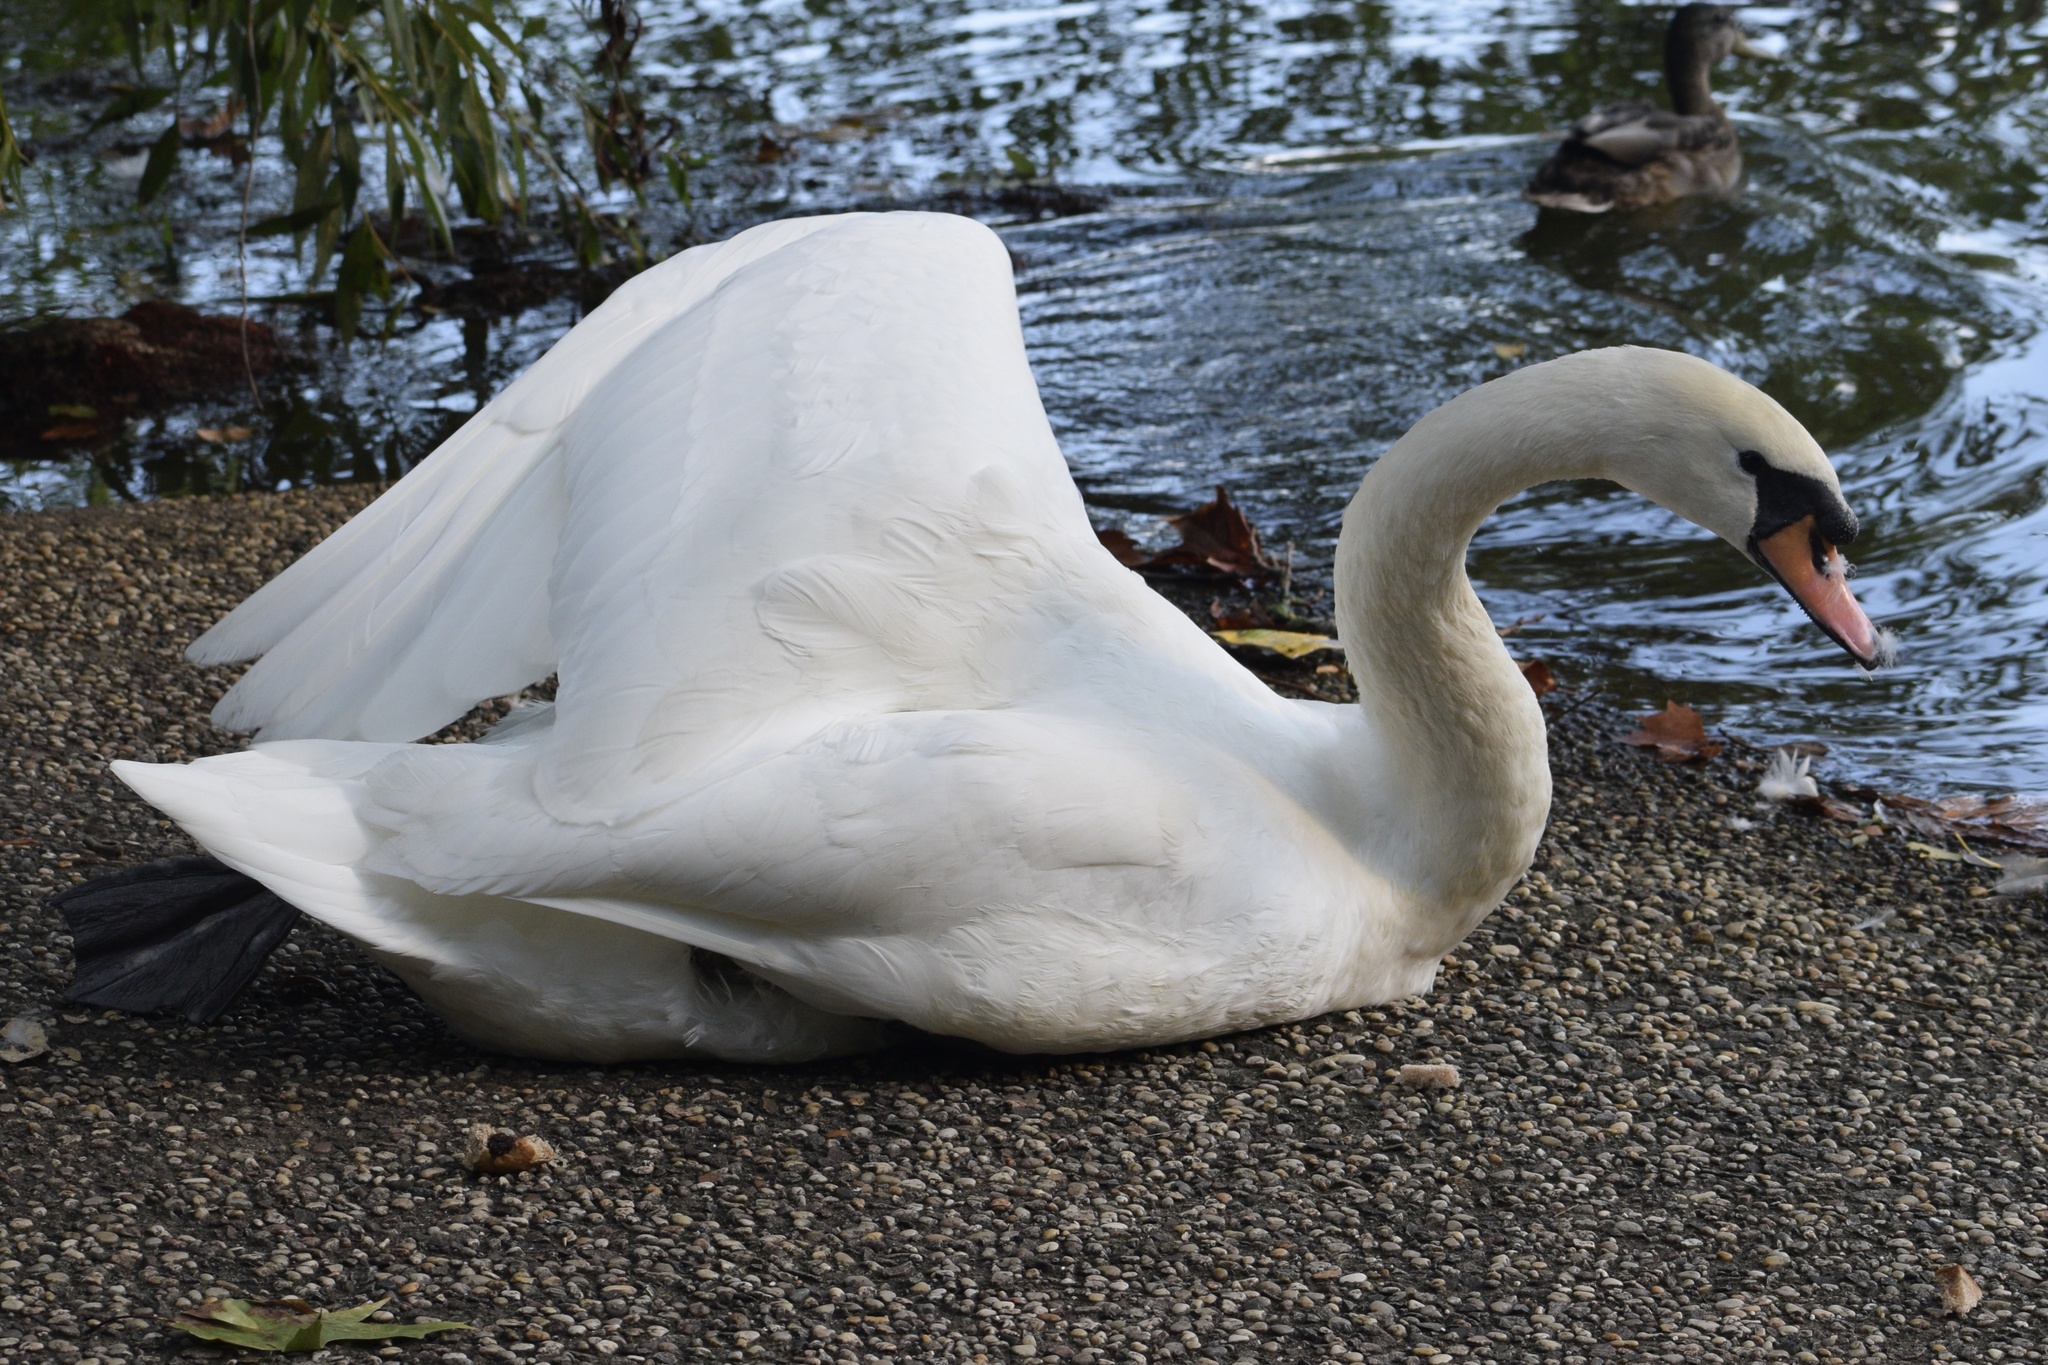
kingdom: Animalia
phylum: Chordata
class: Aves
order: Anseriformes
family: Anatidae
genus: Cygnus
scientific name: Cygnus olor
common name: Mute swan
